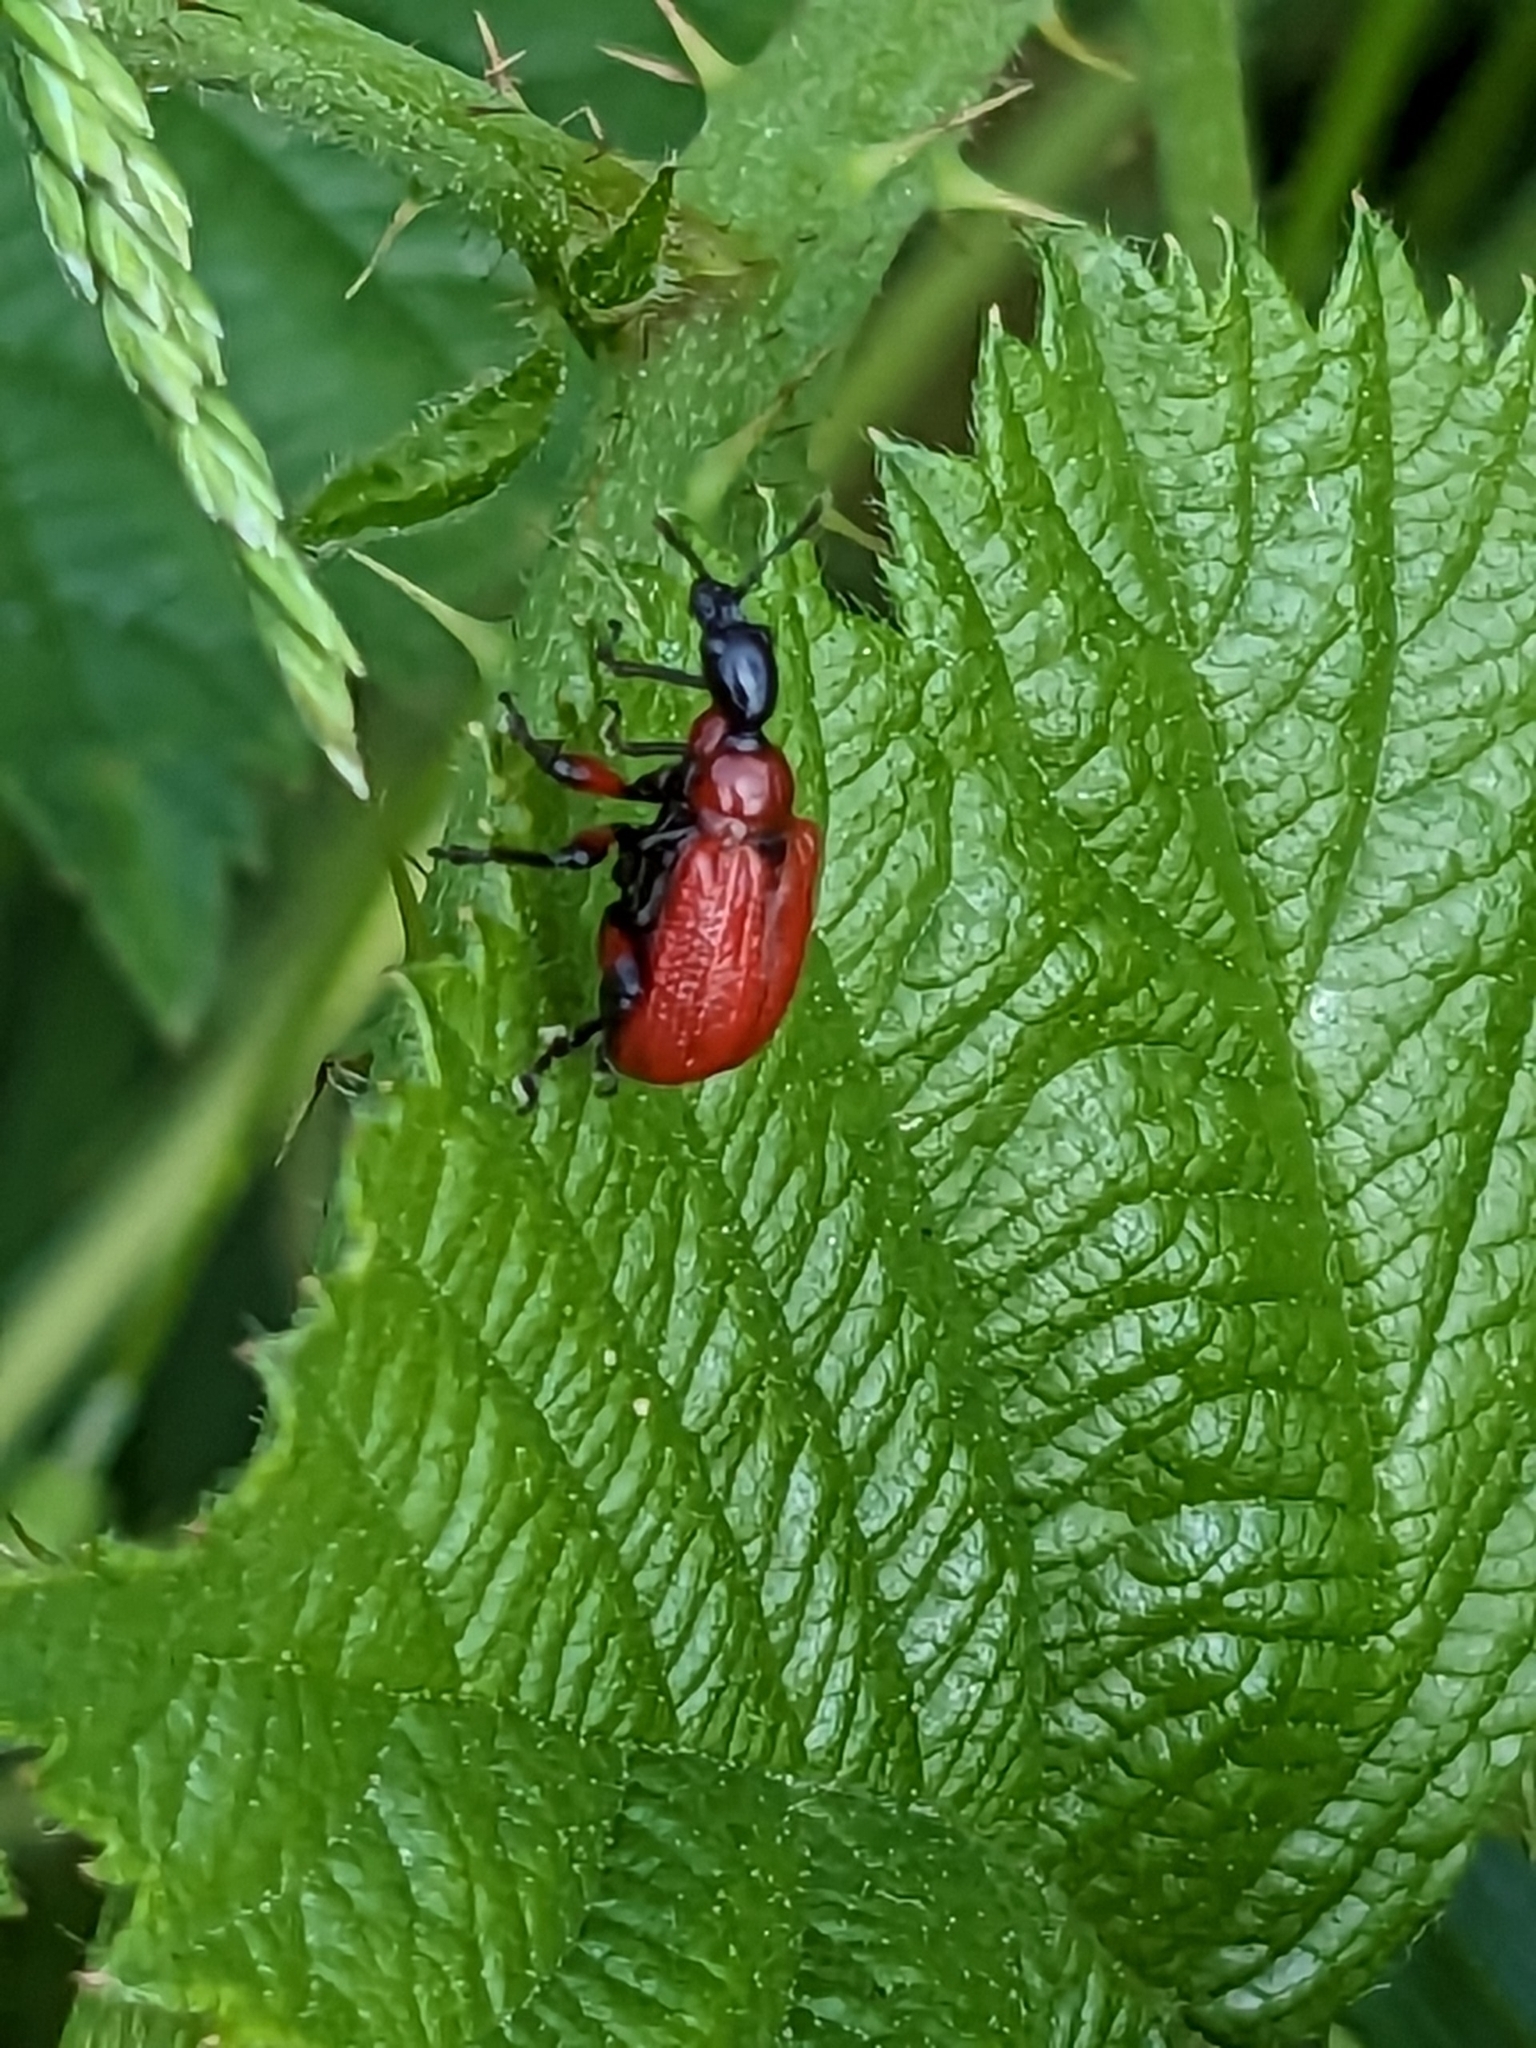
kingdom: Animalia
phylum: Arthropoda
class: Insecta
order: Coleoptera
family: Attelabidae
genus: Apoderus
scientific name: Apoderus coryli
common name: Hazel leaf roller
